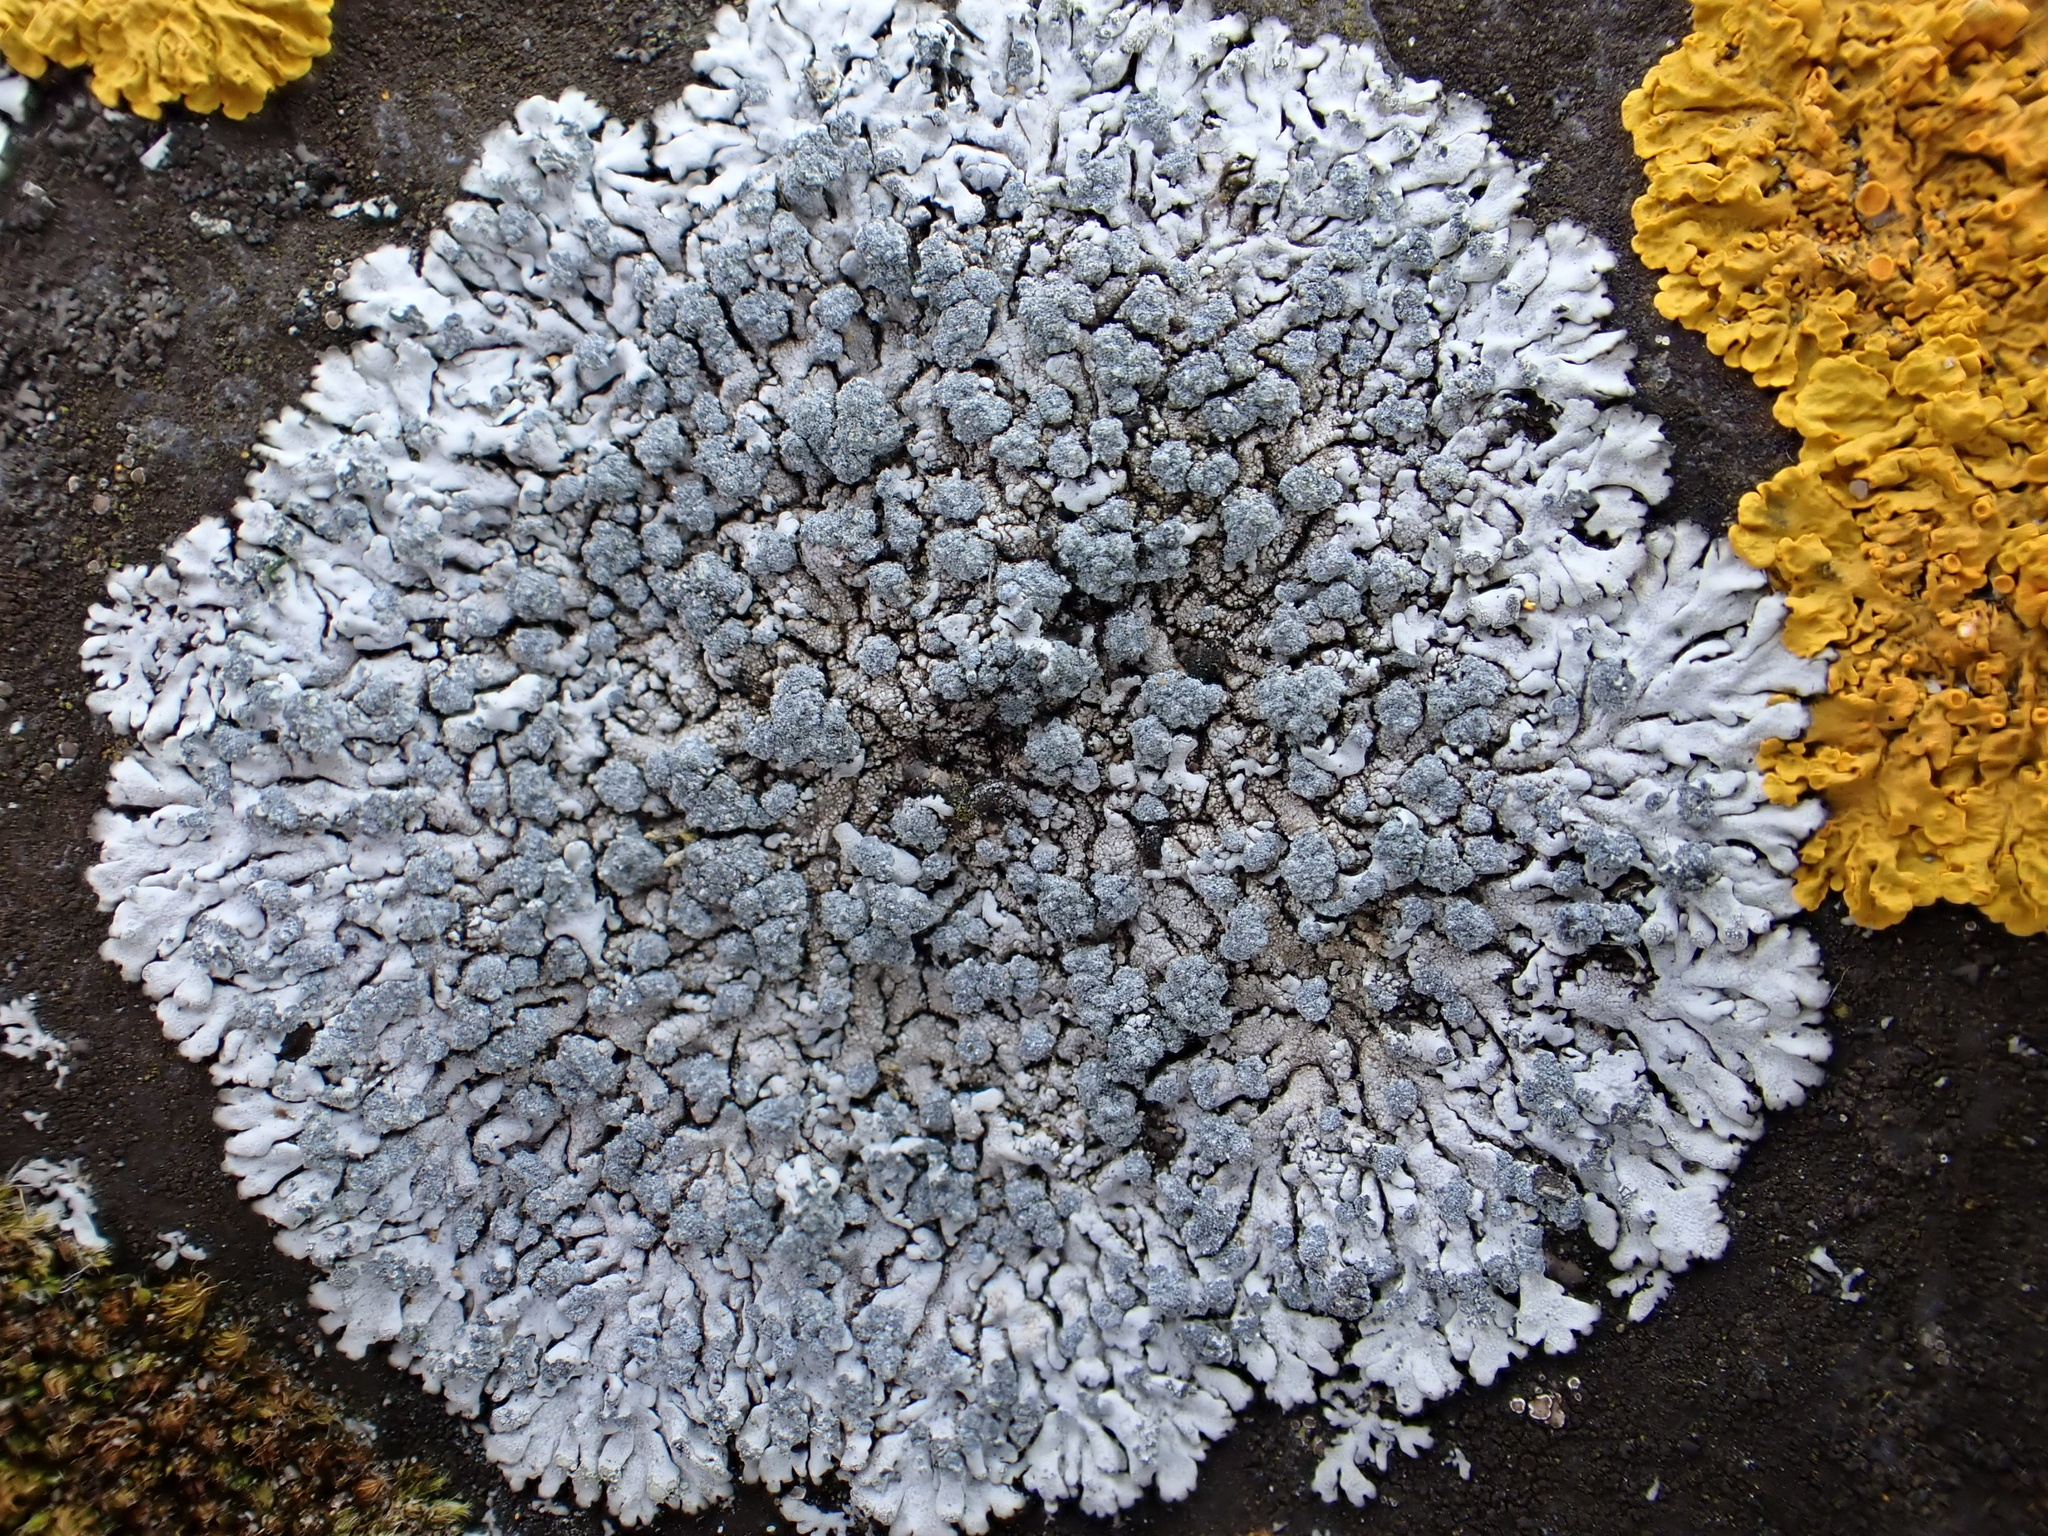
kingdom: Fungi
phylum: Ascomycota
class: Lecanoromycetes
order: Caliciales
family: Physciaceae
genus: Physcia
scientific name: Physcia caesia
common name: Blue-gray rosette lichen
